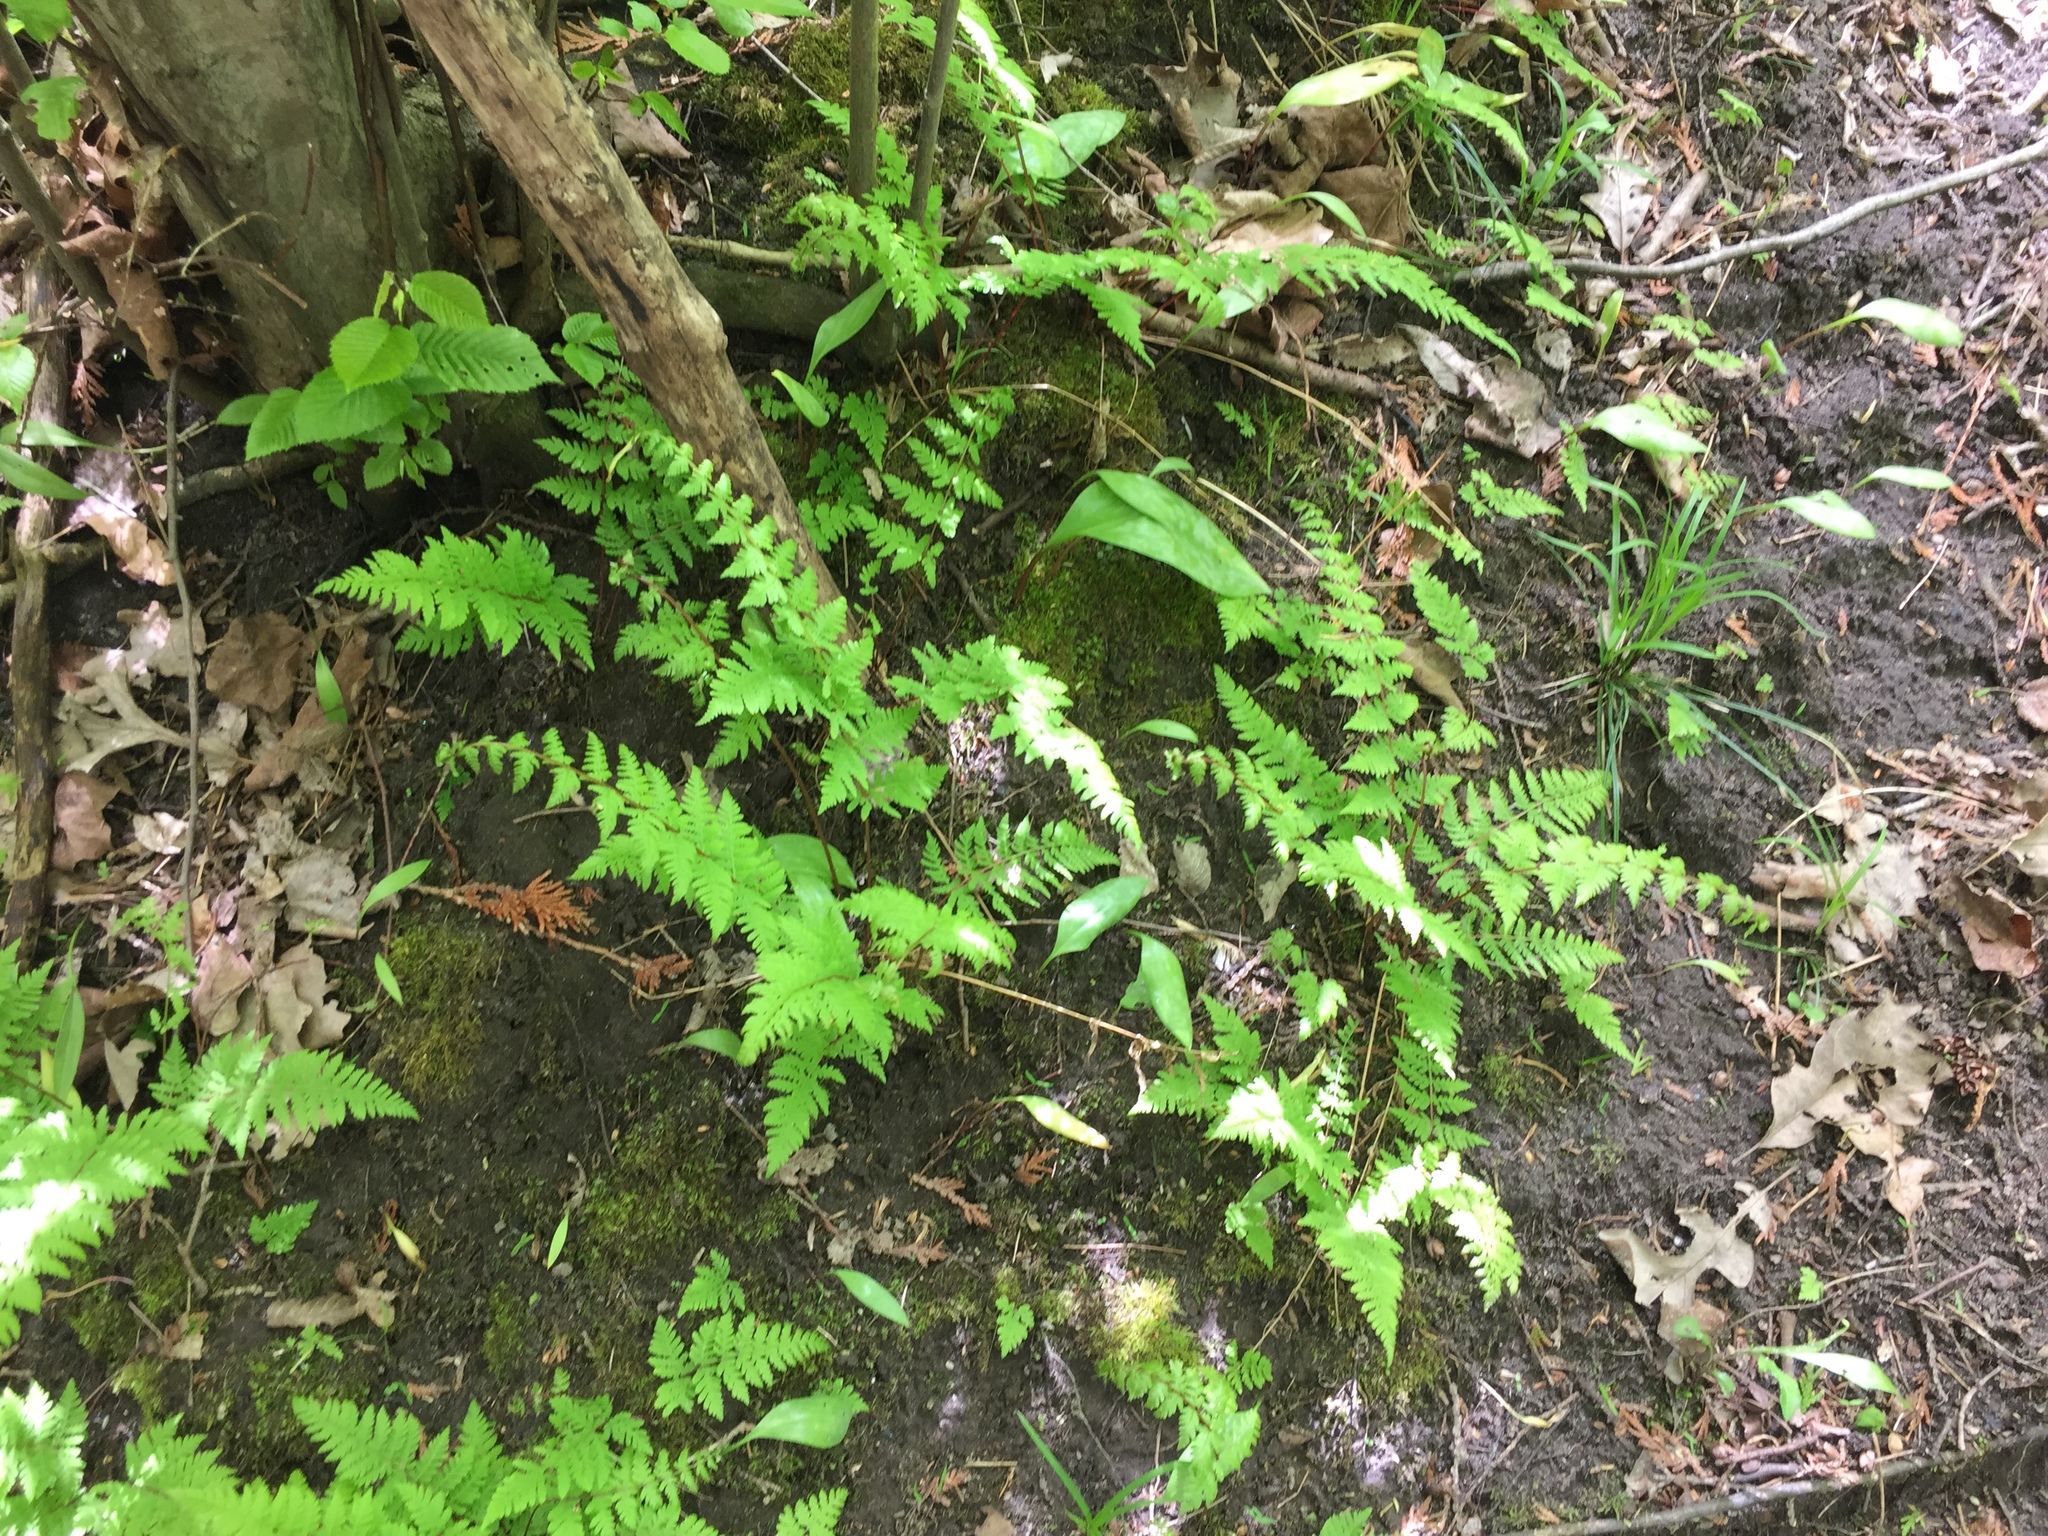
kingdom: Plantae
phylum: Tracheophyta
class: Polypodiopsida
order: Polypodiales
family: Cystopteridaceae
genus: Cystopteris
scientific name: Cystopteris bulbifera
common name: Bulblet bladder fern
